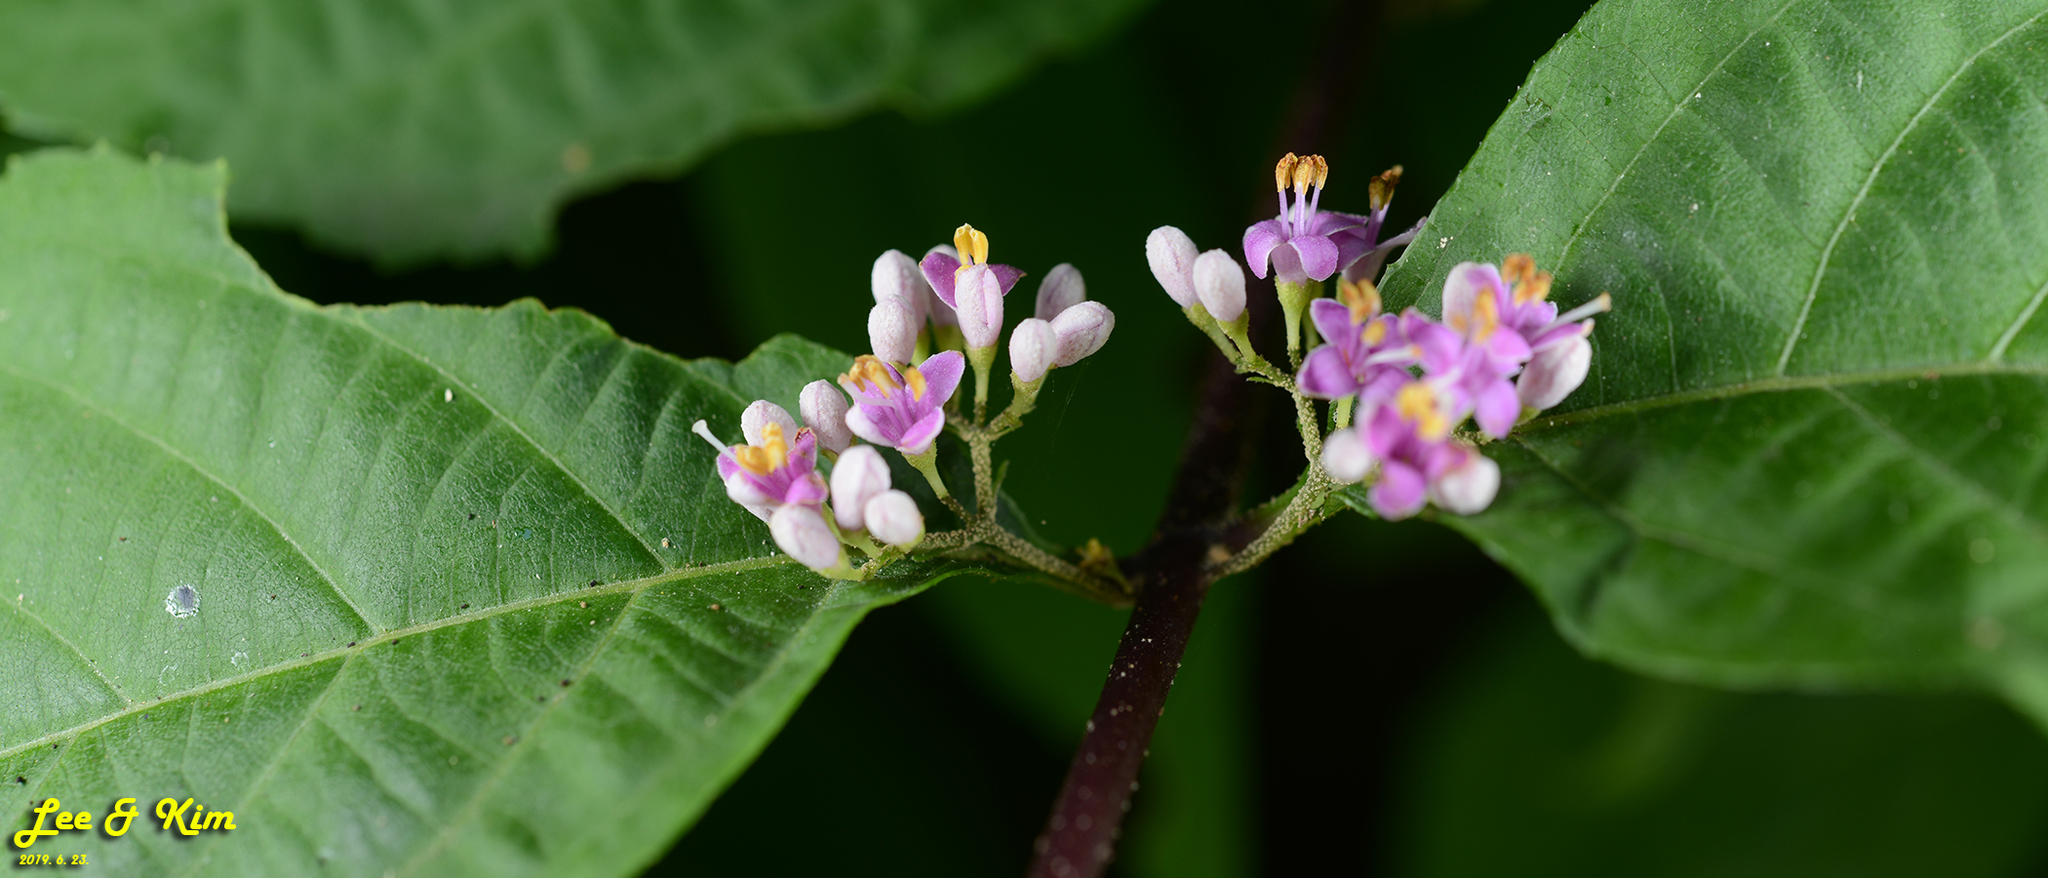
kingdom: Plantae
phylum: Tracheophyta
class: Magnoliopsida
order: Lamiales
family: Lamiaceae
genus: Callicarpa
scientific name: Callicarpa japonica
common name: Japanese beauty-berry
